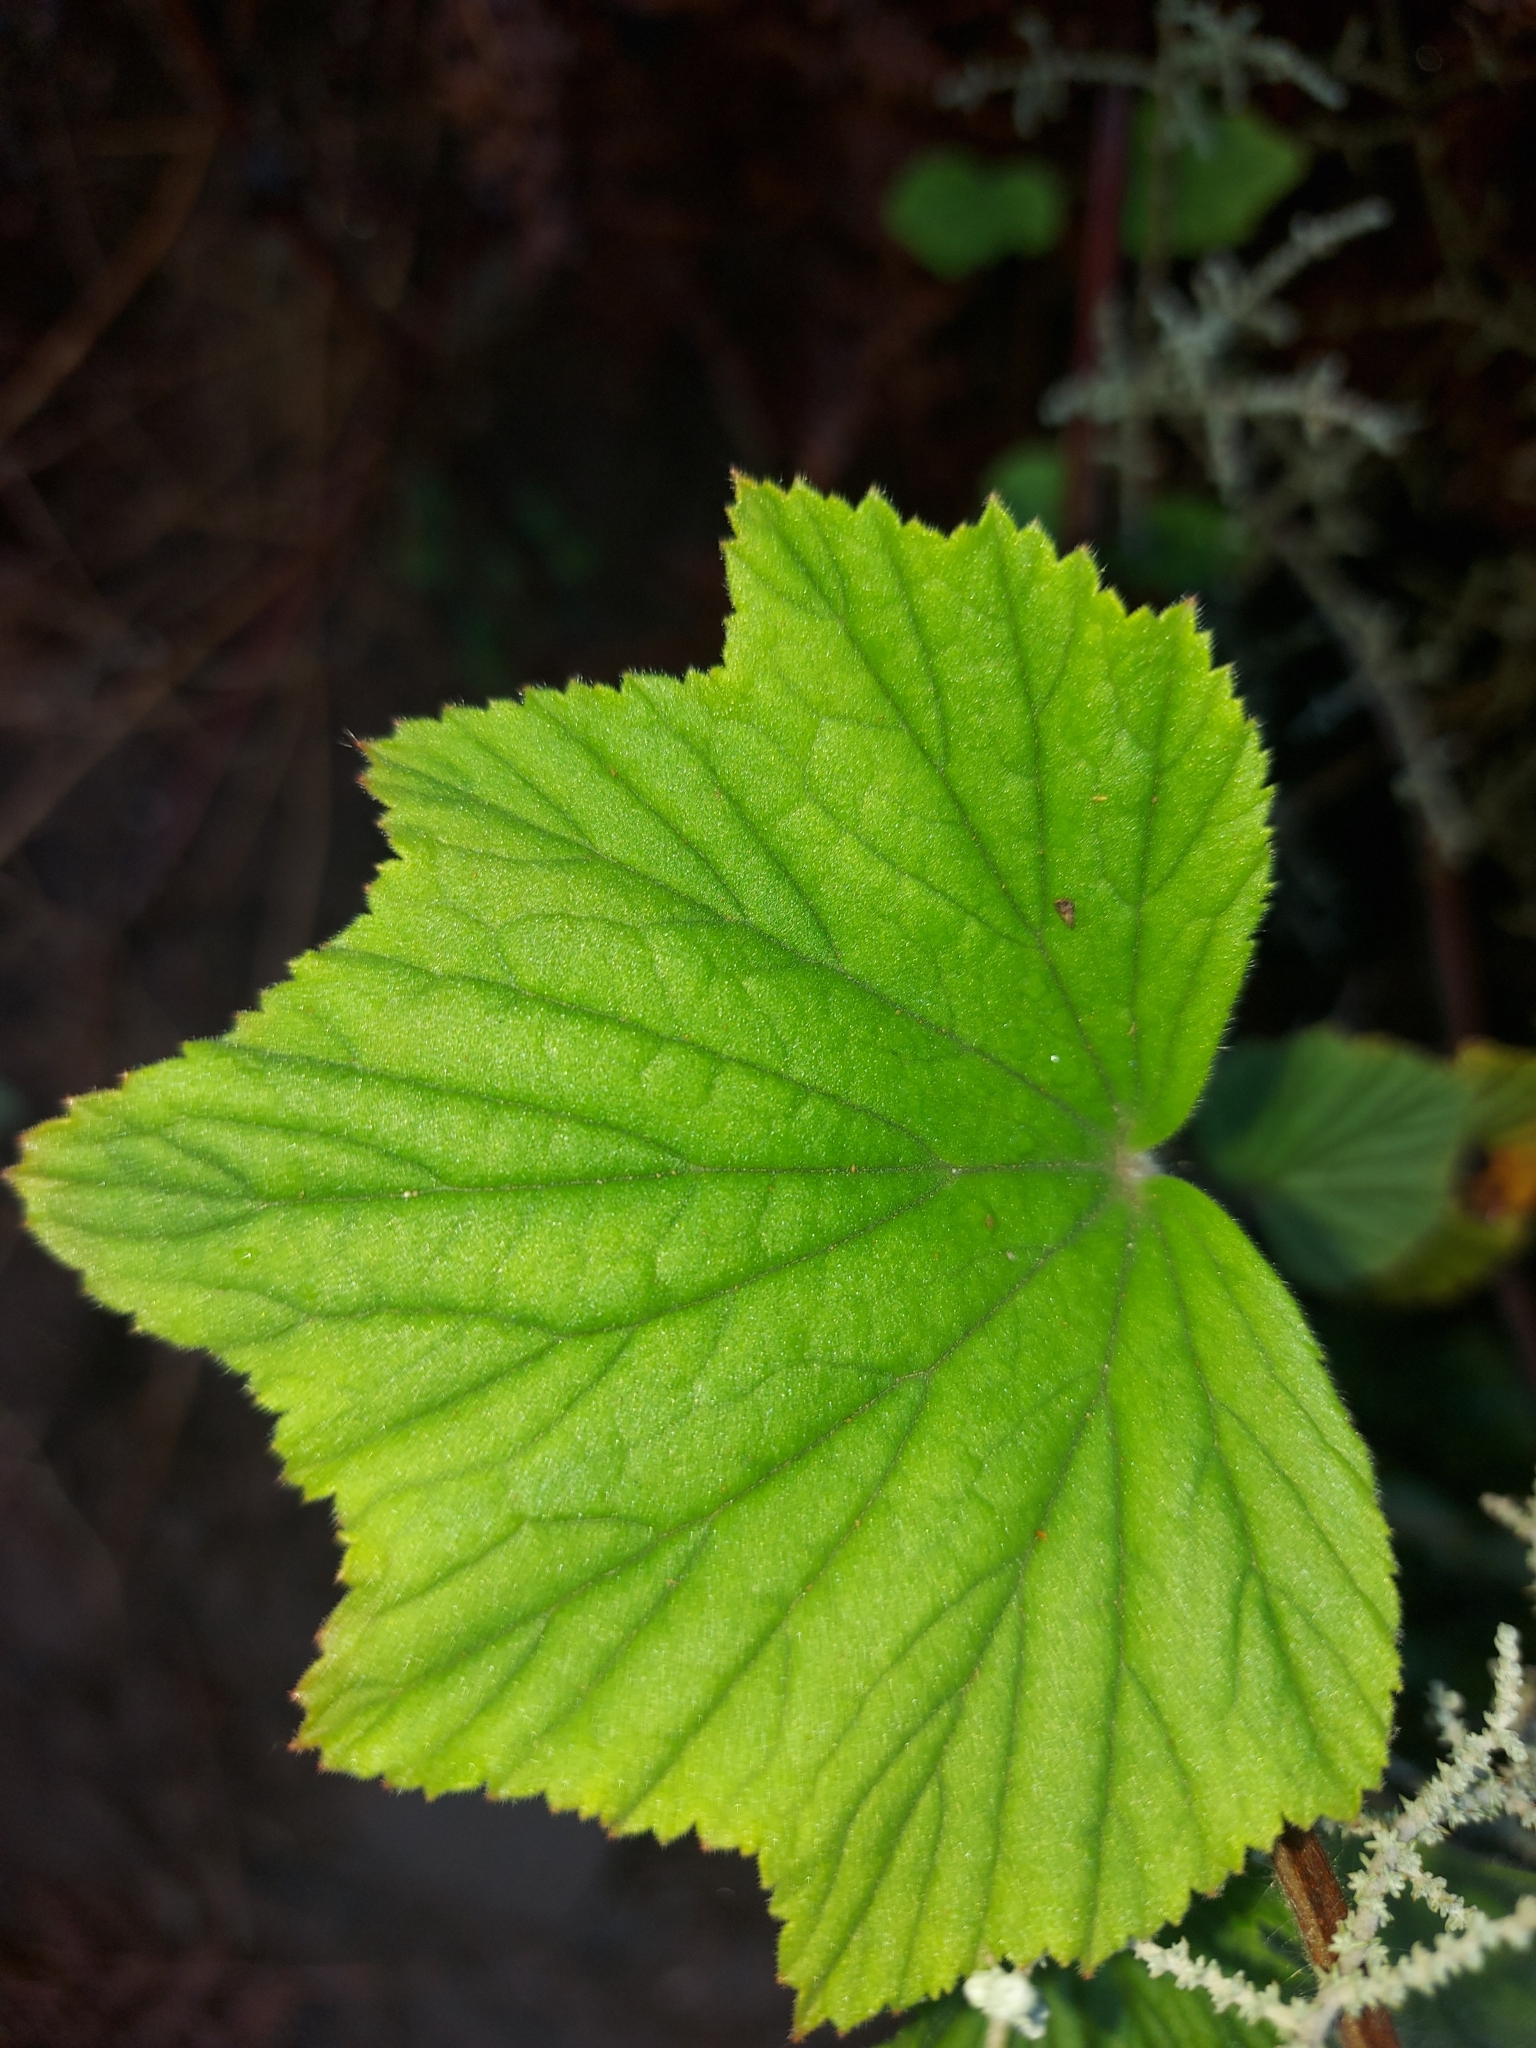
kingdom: Plantae
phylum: Tracheophyta
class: Magnoliopsida
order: Geraniales
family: Geraniaceae
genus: Pelargonium
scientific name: Pelargonium cucullatum
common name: Tree pelargonium
